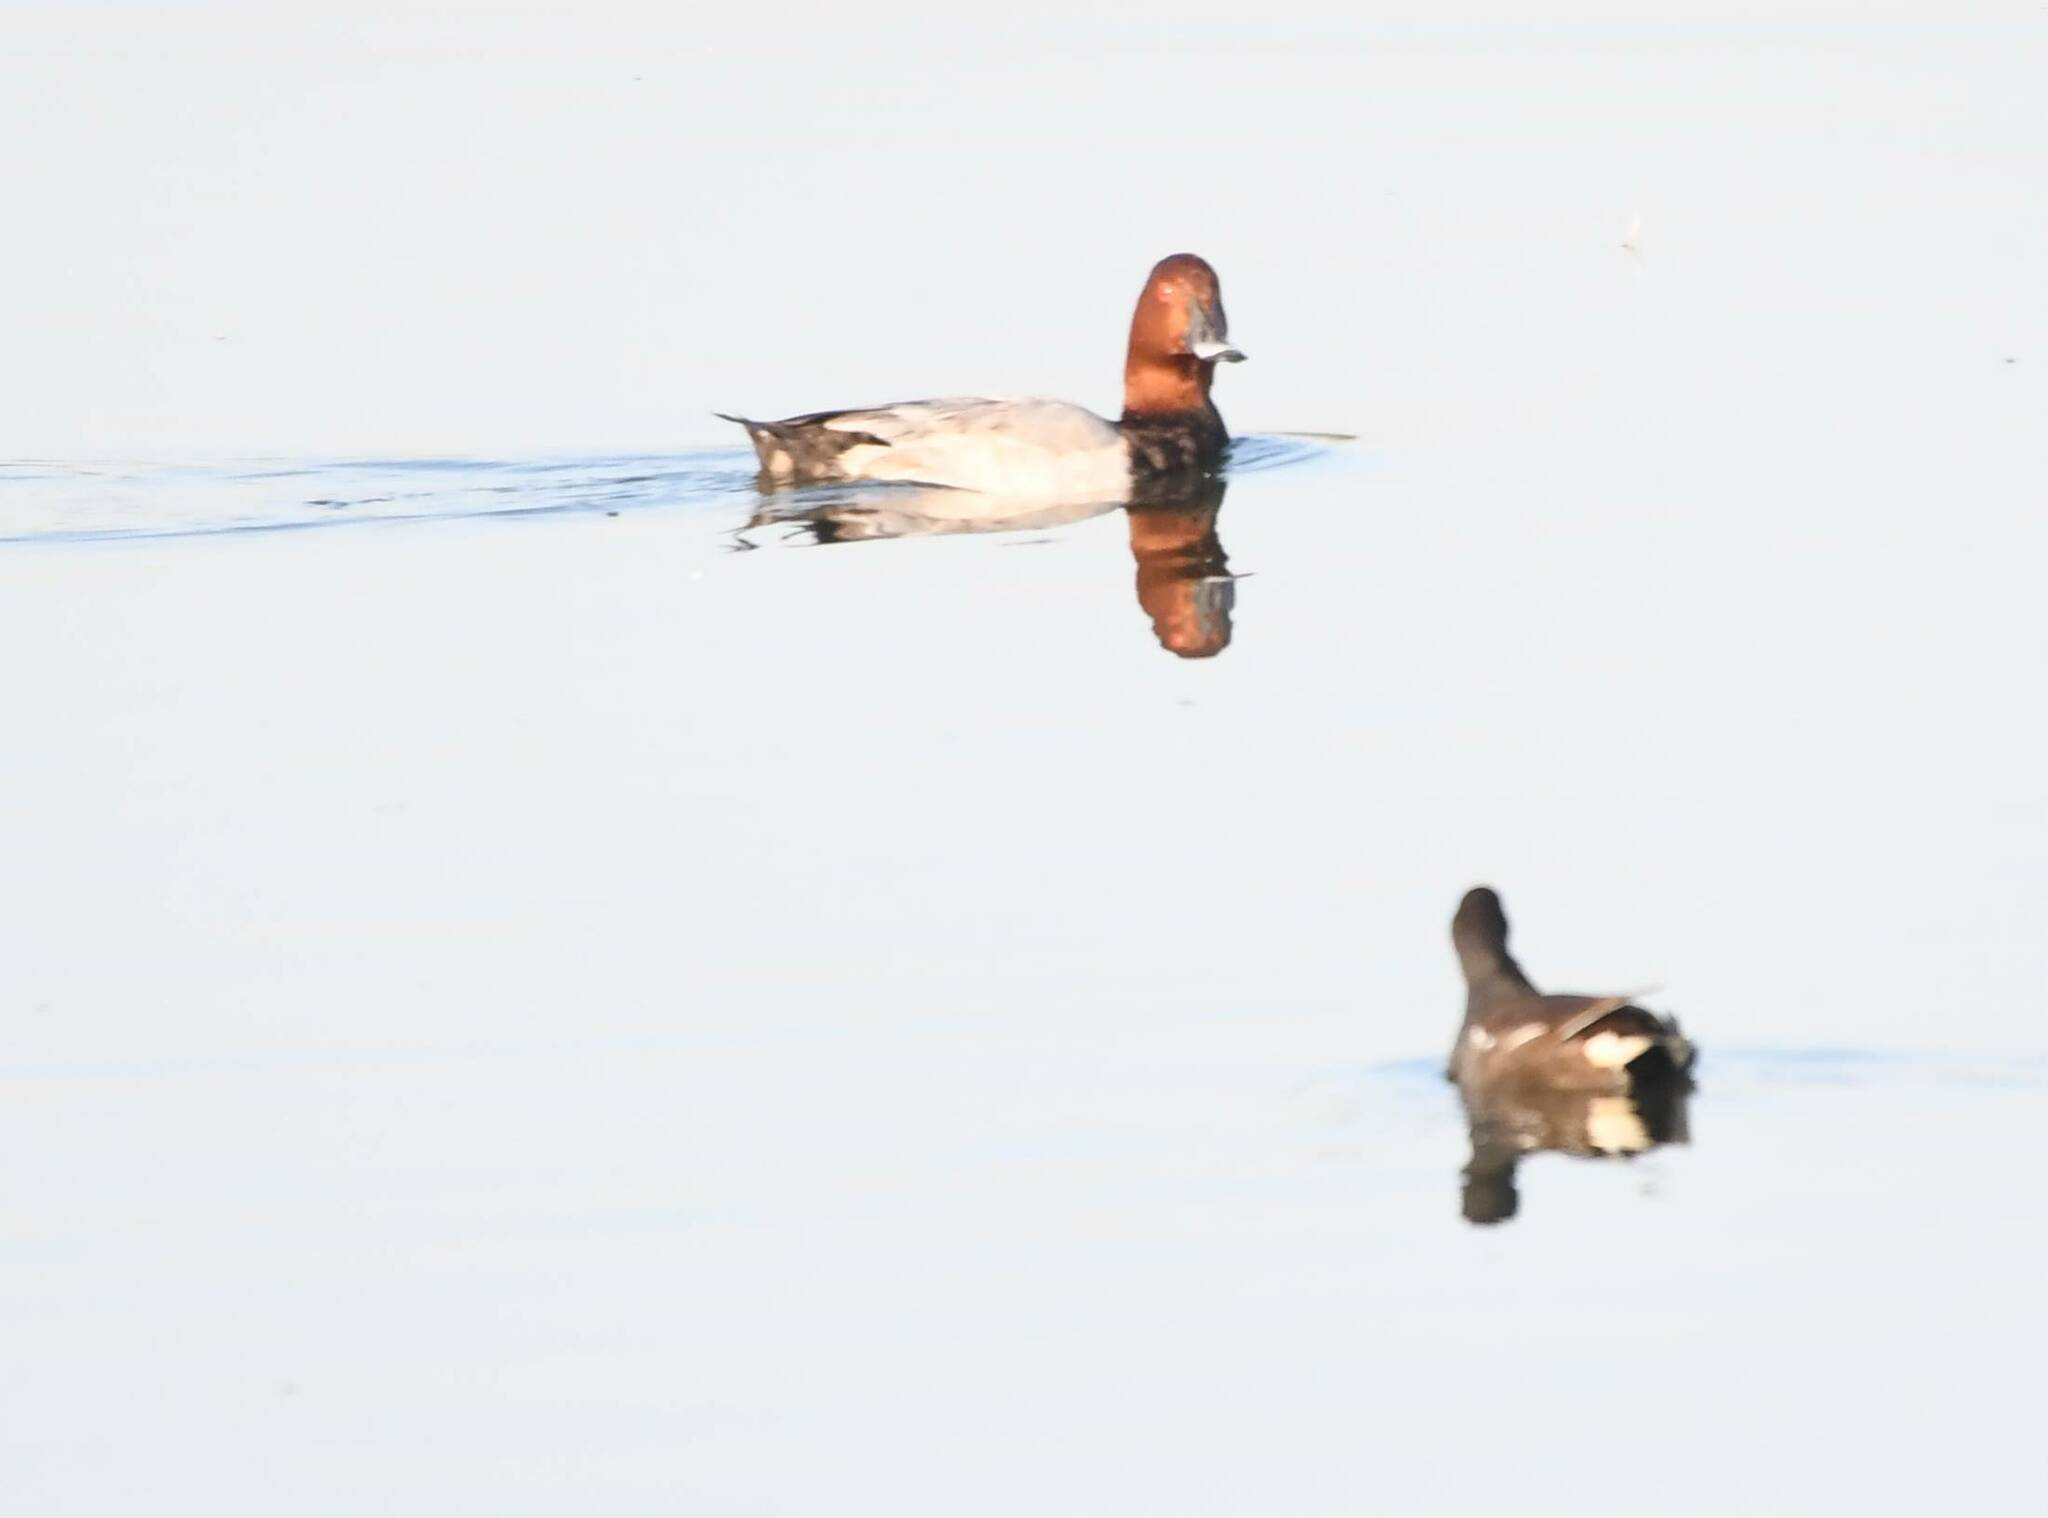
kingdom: Animalia
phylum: Chordata
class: Aves
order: Anseriformes
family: Anatidae
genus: Aythya
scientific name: Aythya ferina
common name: Common pochard
